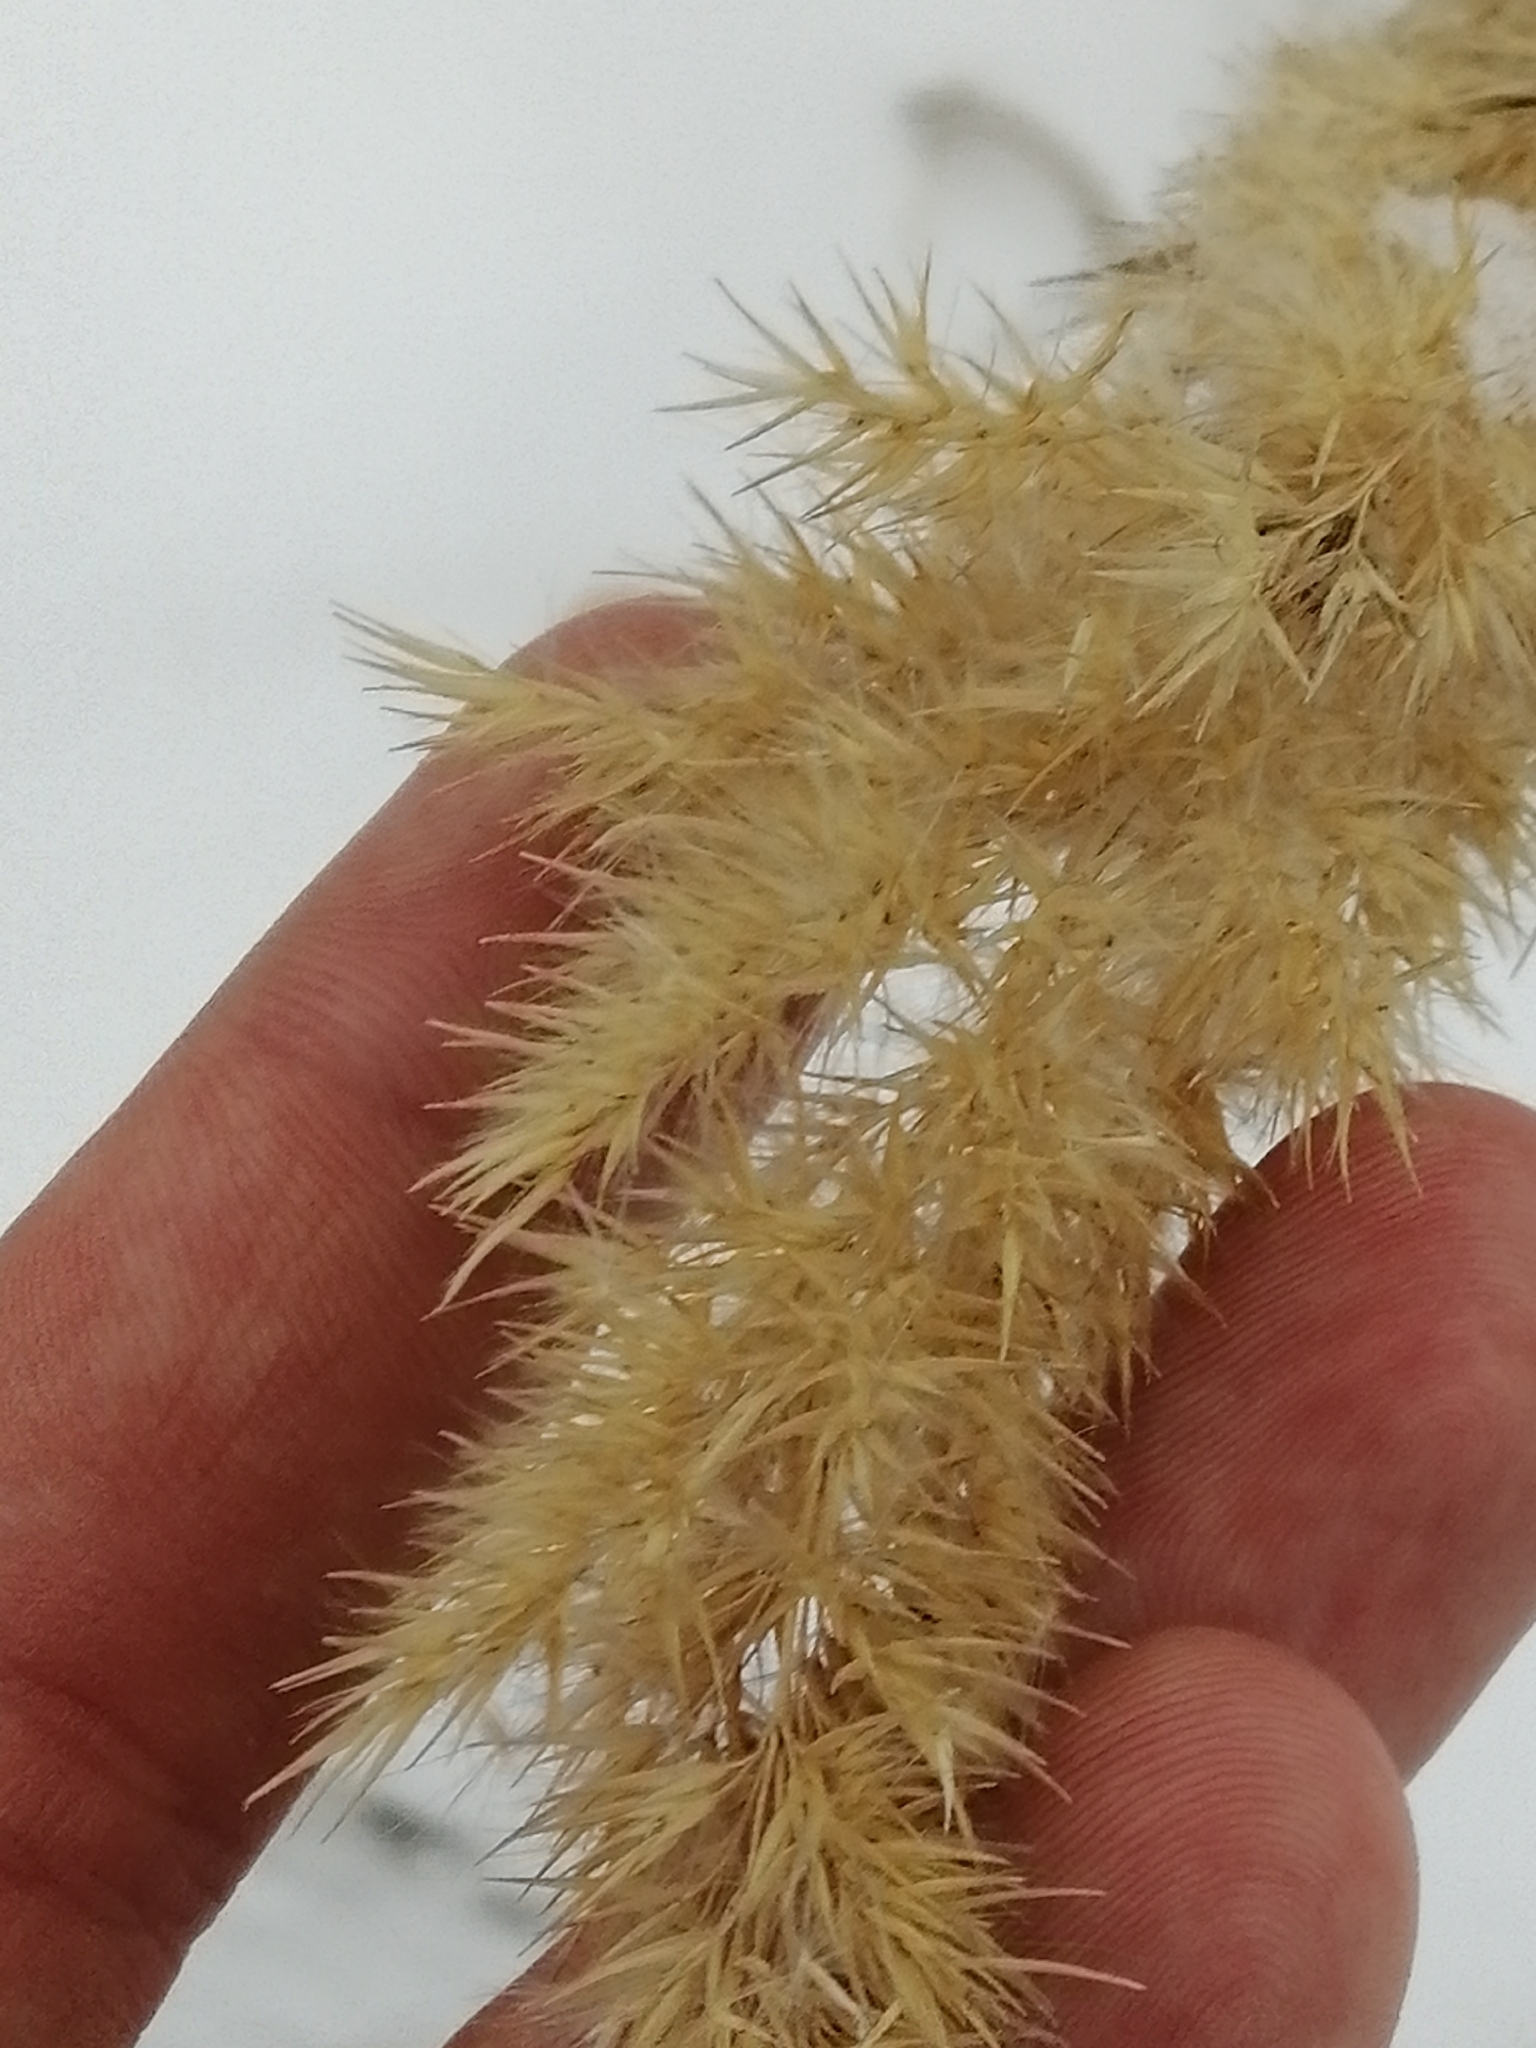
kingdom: Plantae
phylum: Tracheophyta
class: Liliopsida
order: Poales
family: Poaceae
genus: Calamagrostis
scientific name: Calamagrostis epigejos
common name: Wood small-reed
